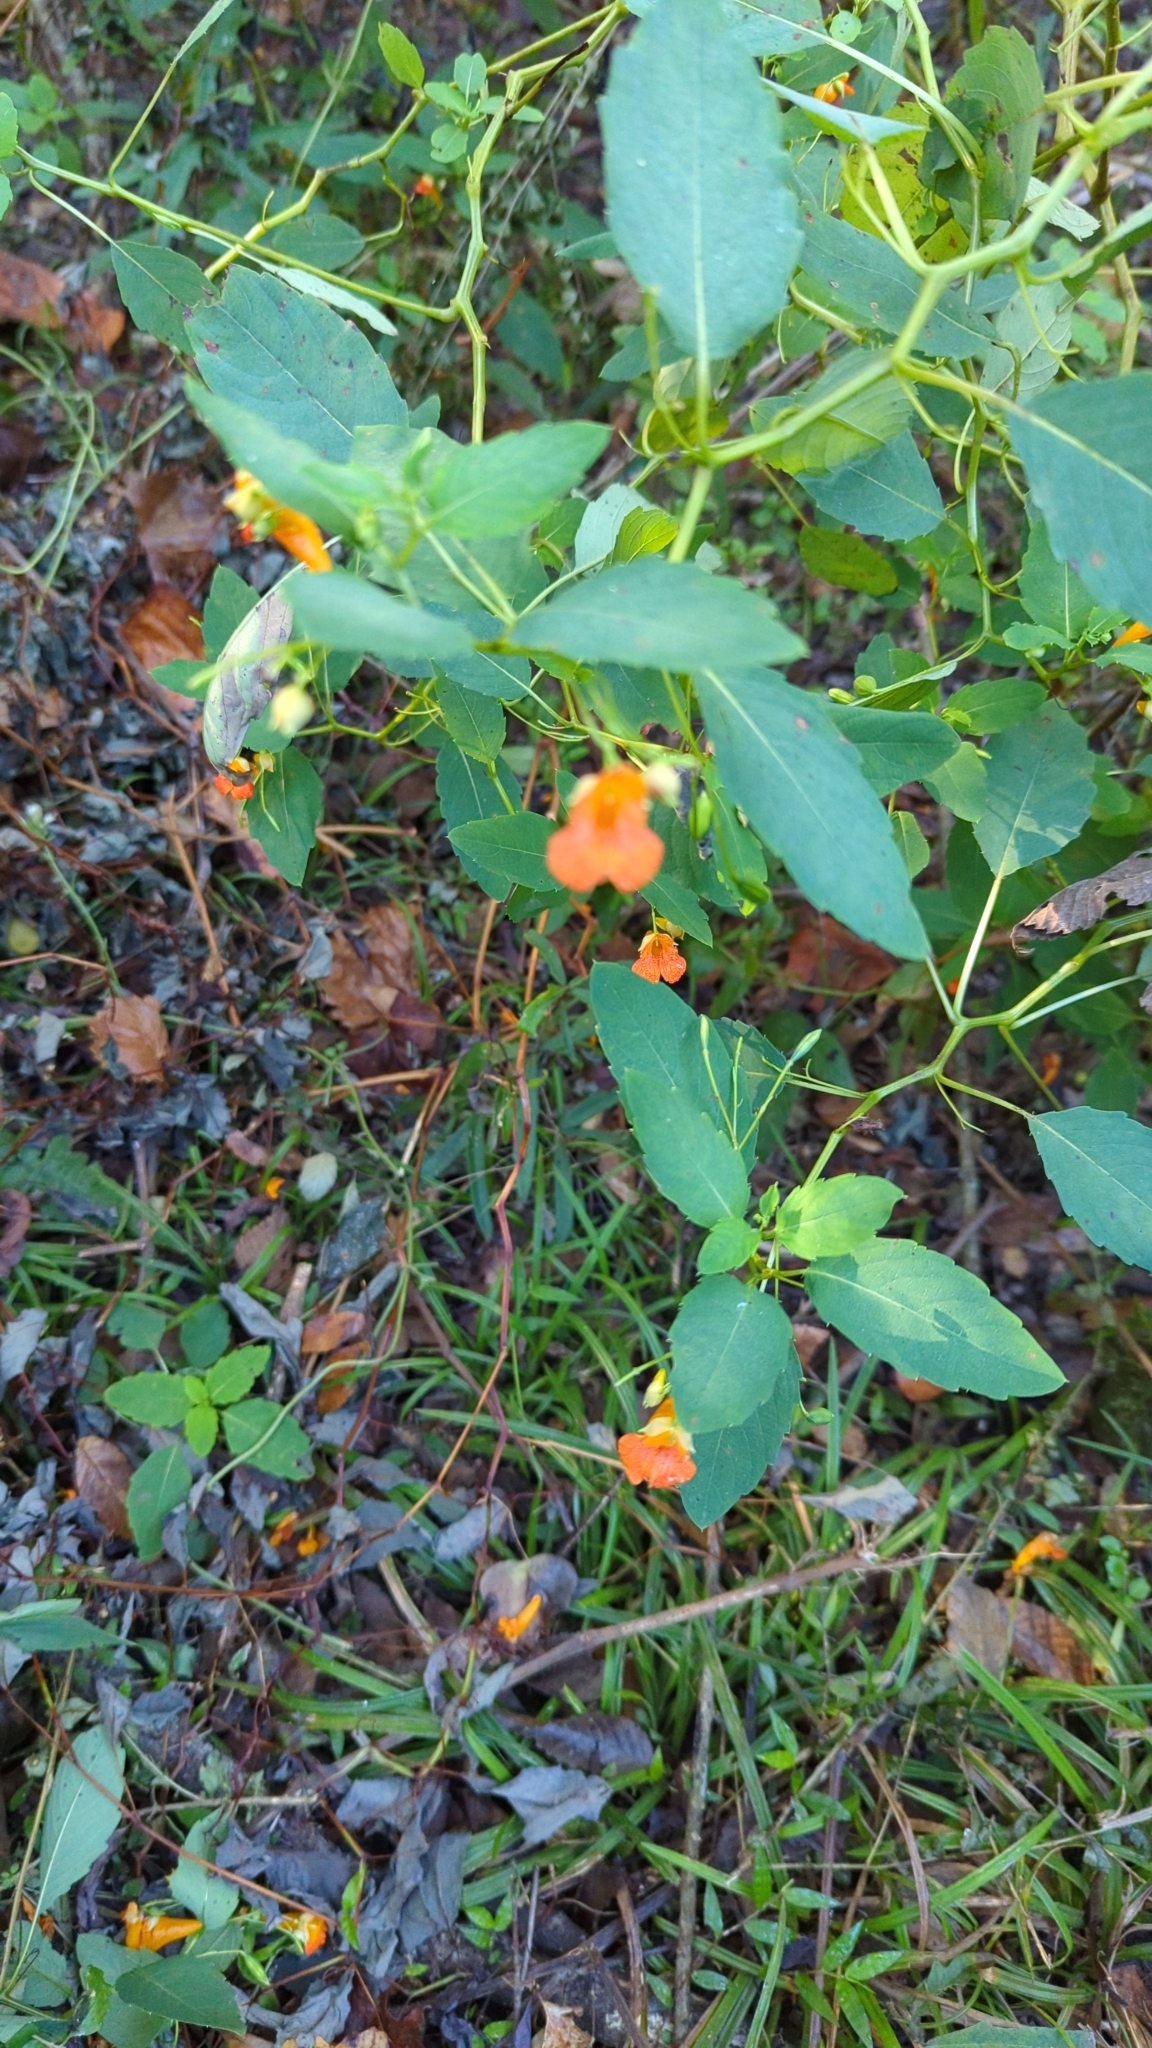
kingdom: Plantae
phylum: Tracheophyta
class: Magnoliopsida
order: Ericales
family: Balsaminaceae
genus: Impatiens
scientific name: Impatiens capensis
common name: Orange balsam
